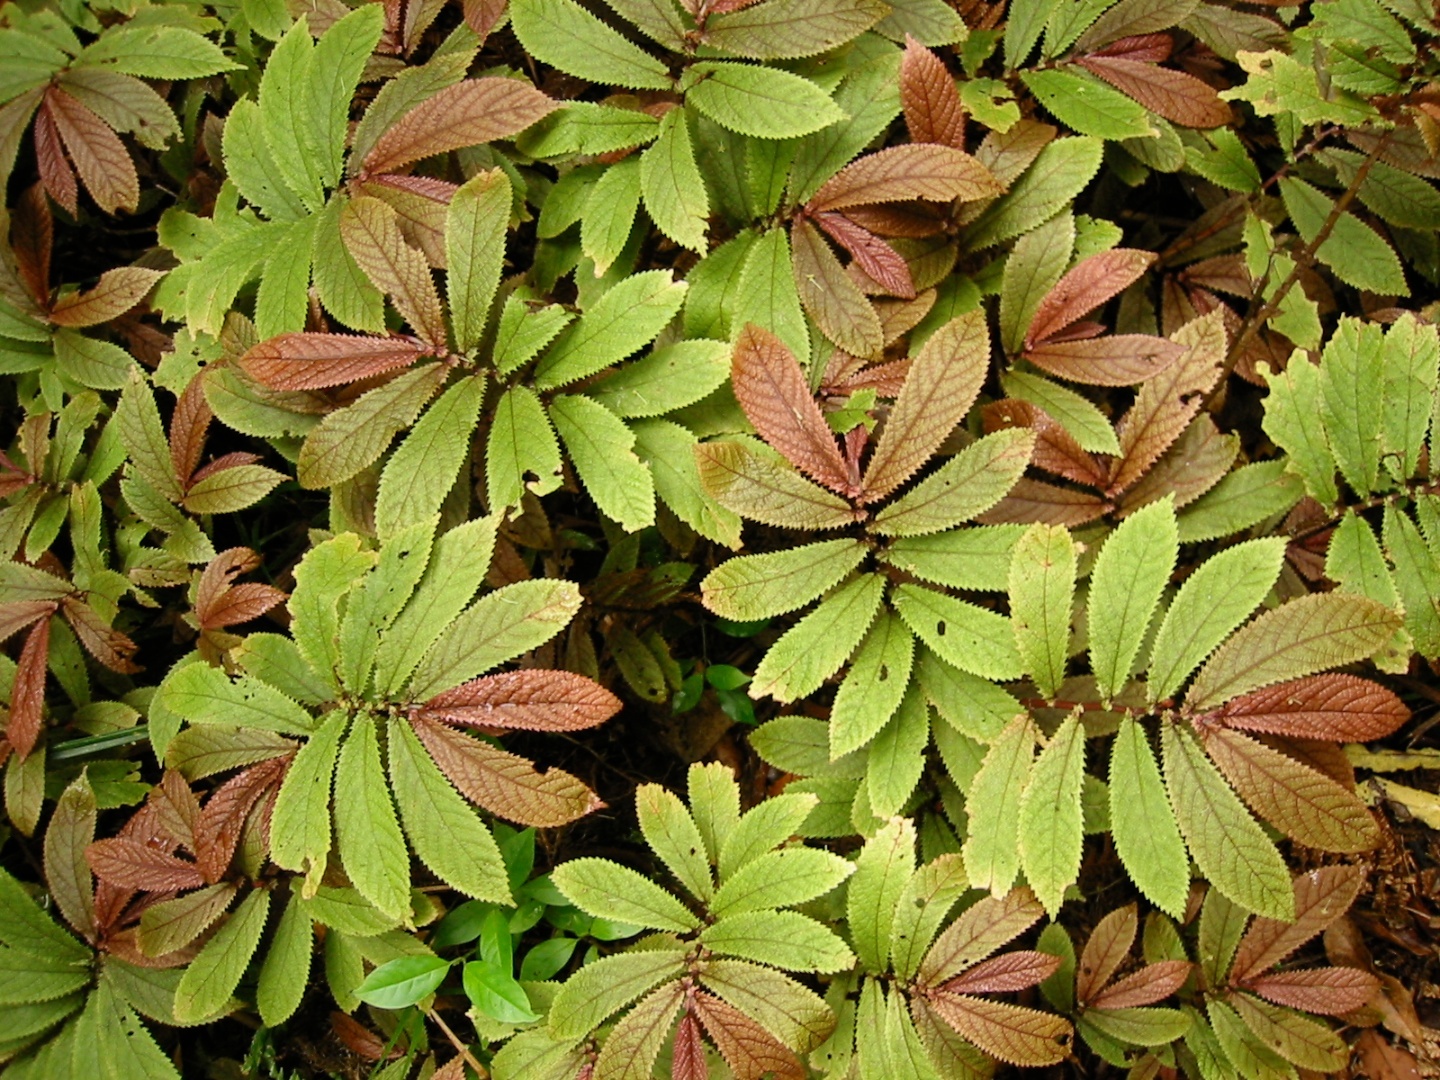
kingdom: Plantae
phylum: Tracheophyta
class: Magnoliopsida
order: Rosales
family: Urticaceae
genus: Elatostema
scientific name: Elatostema rugosum
